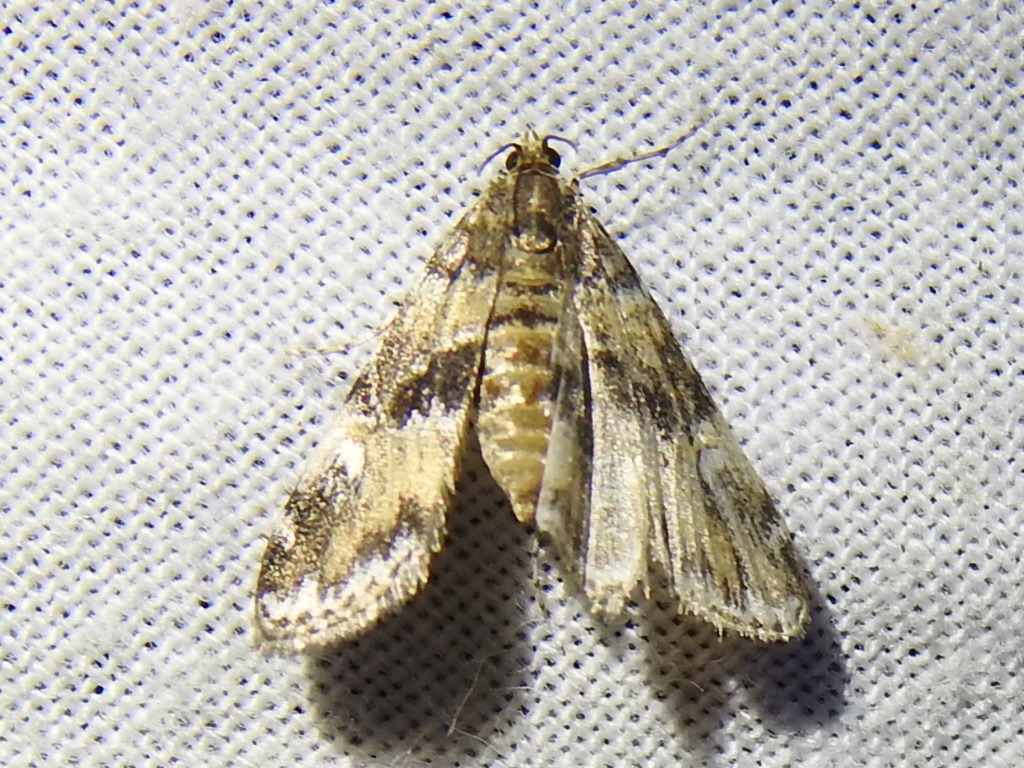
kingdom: Animalia
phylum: Arthropoda
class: Insecta
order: Lepidoptera
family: Crambidae
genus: Elophila
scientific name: Elophila obliteralis
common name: Waterlily leafcutter moth
